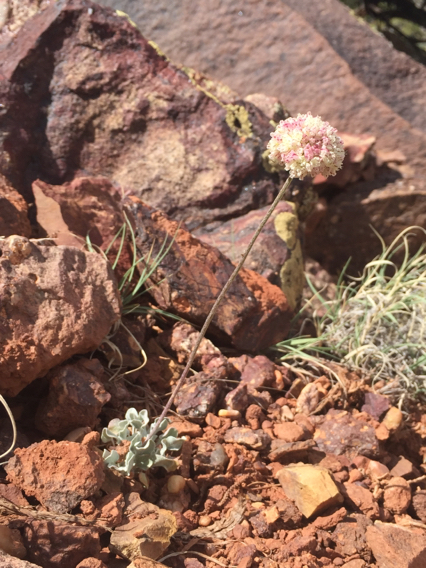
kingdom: Plantae
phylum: Tracheophyta
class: Magnoliopsida
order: Caryophyllales
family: Polygonaceae
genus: Eriogonum
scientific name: Eriogonum ovalifolium
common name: Cushion buckwheat
